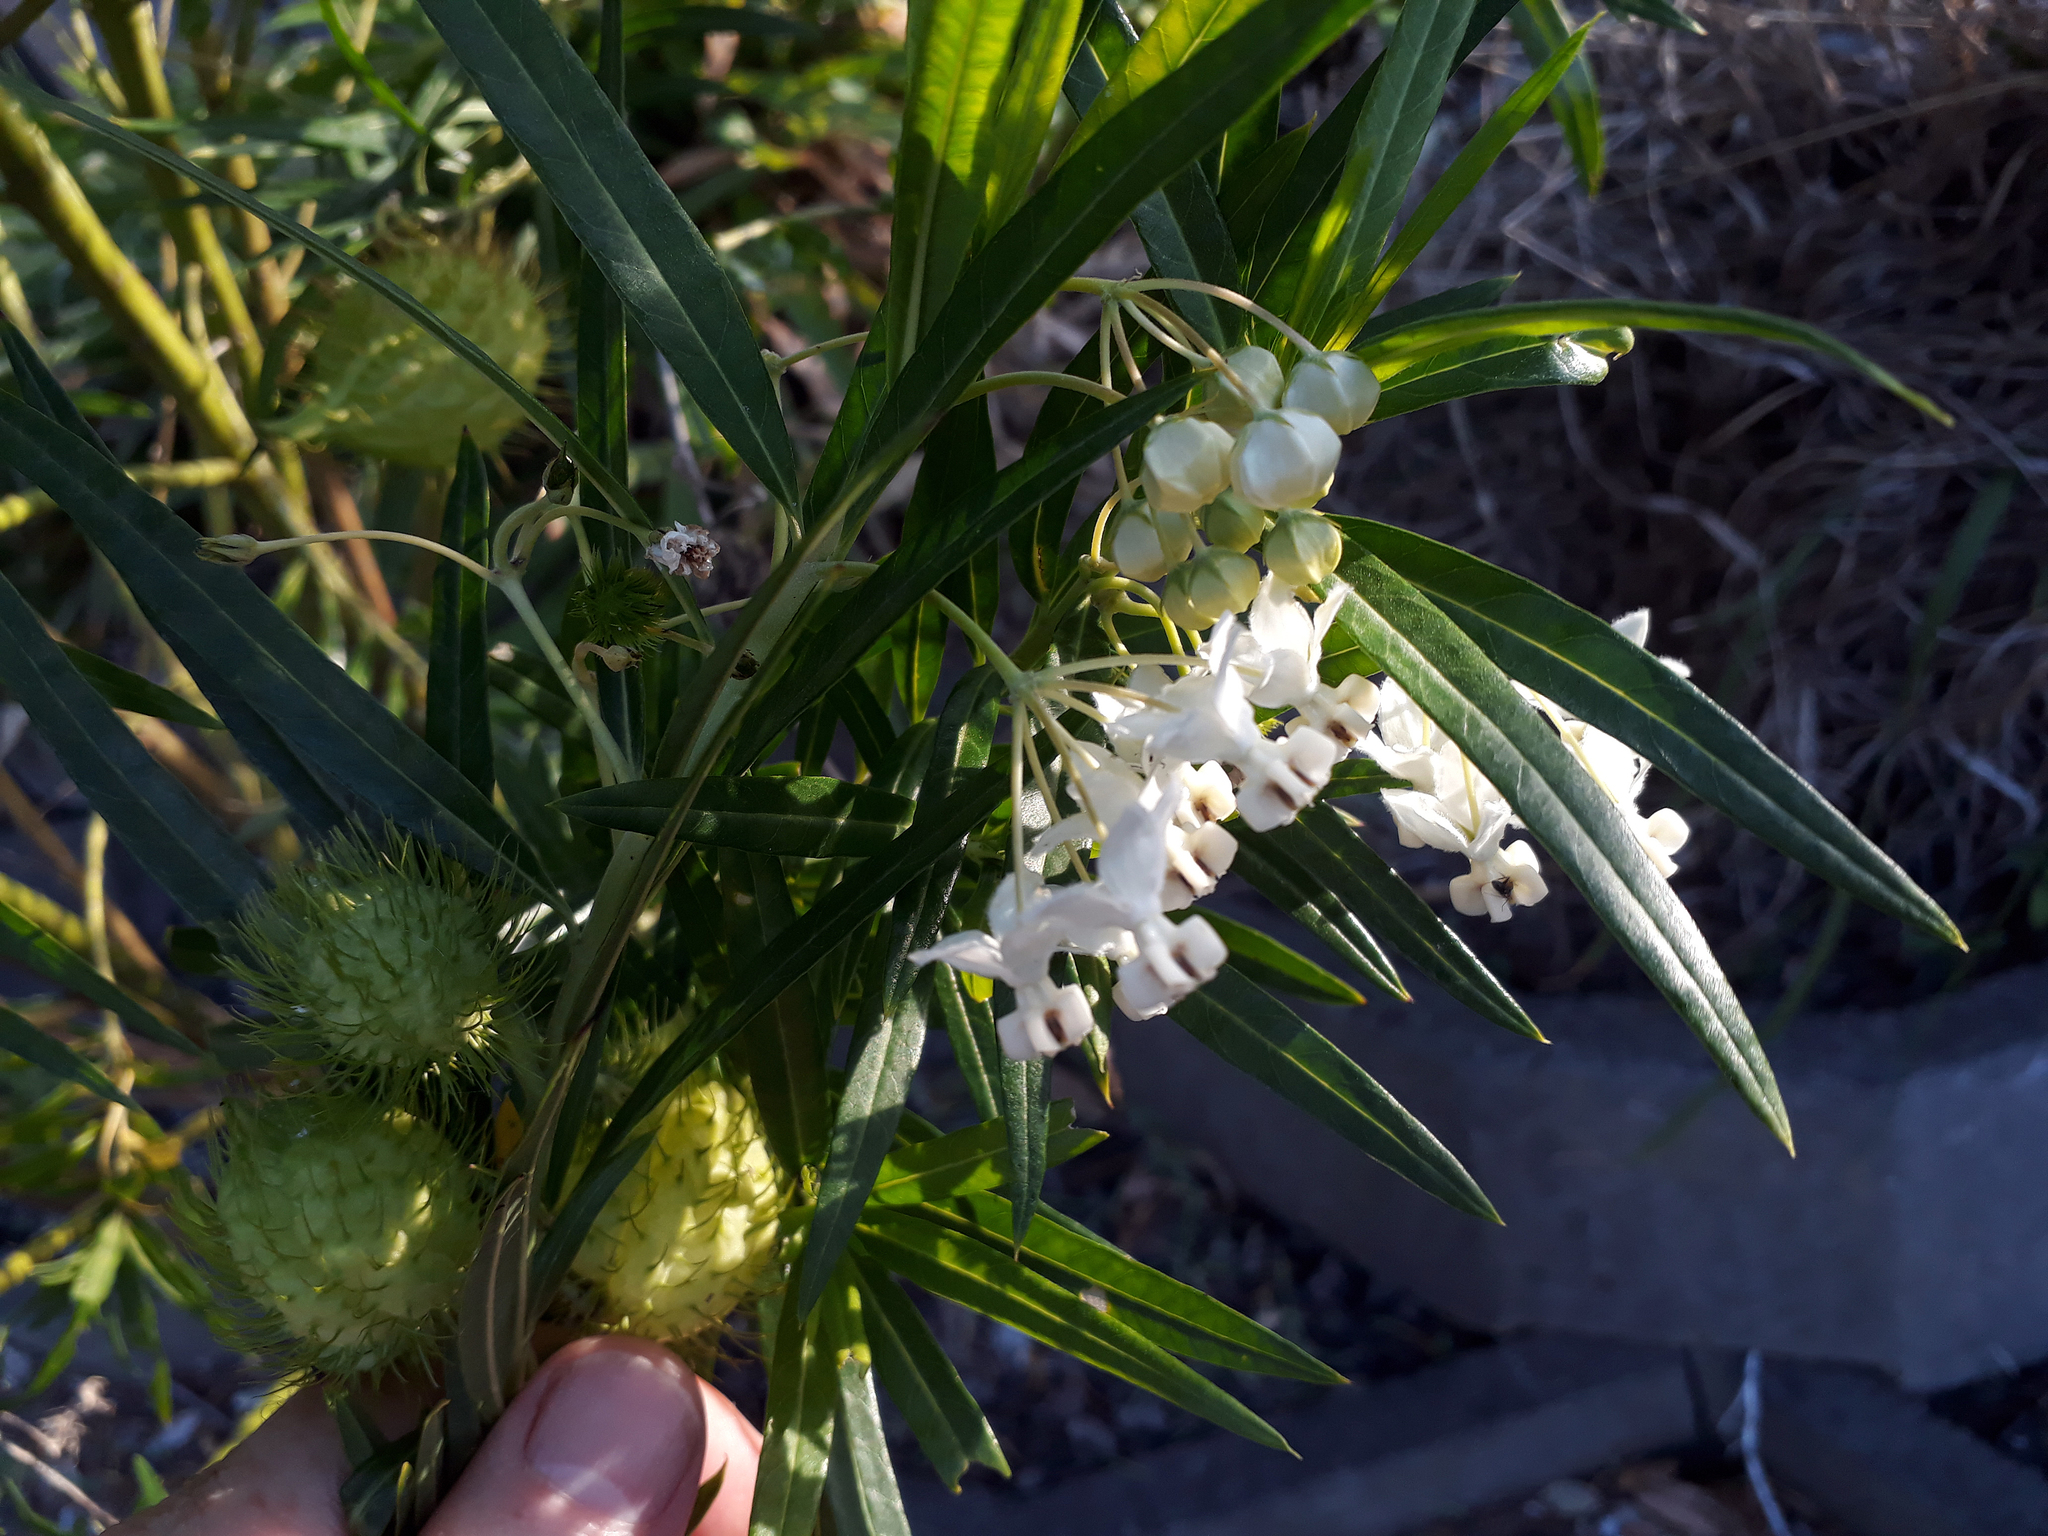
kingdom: Plantae
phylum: Tracheophyta
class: Magnoliopsida
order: Gentianales
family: Apocynaceae
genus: Gomphocarpus
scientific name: Gomphocarpus physocarpus
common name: Balloon cotton bush
